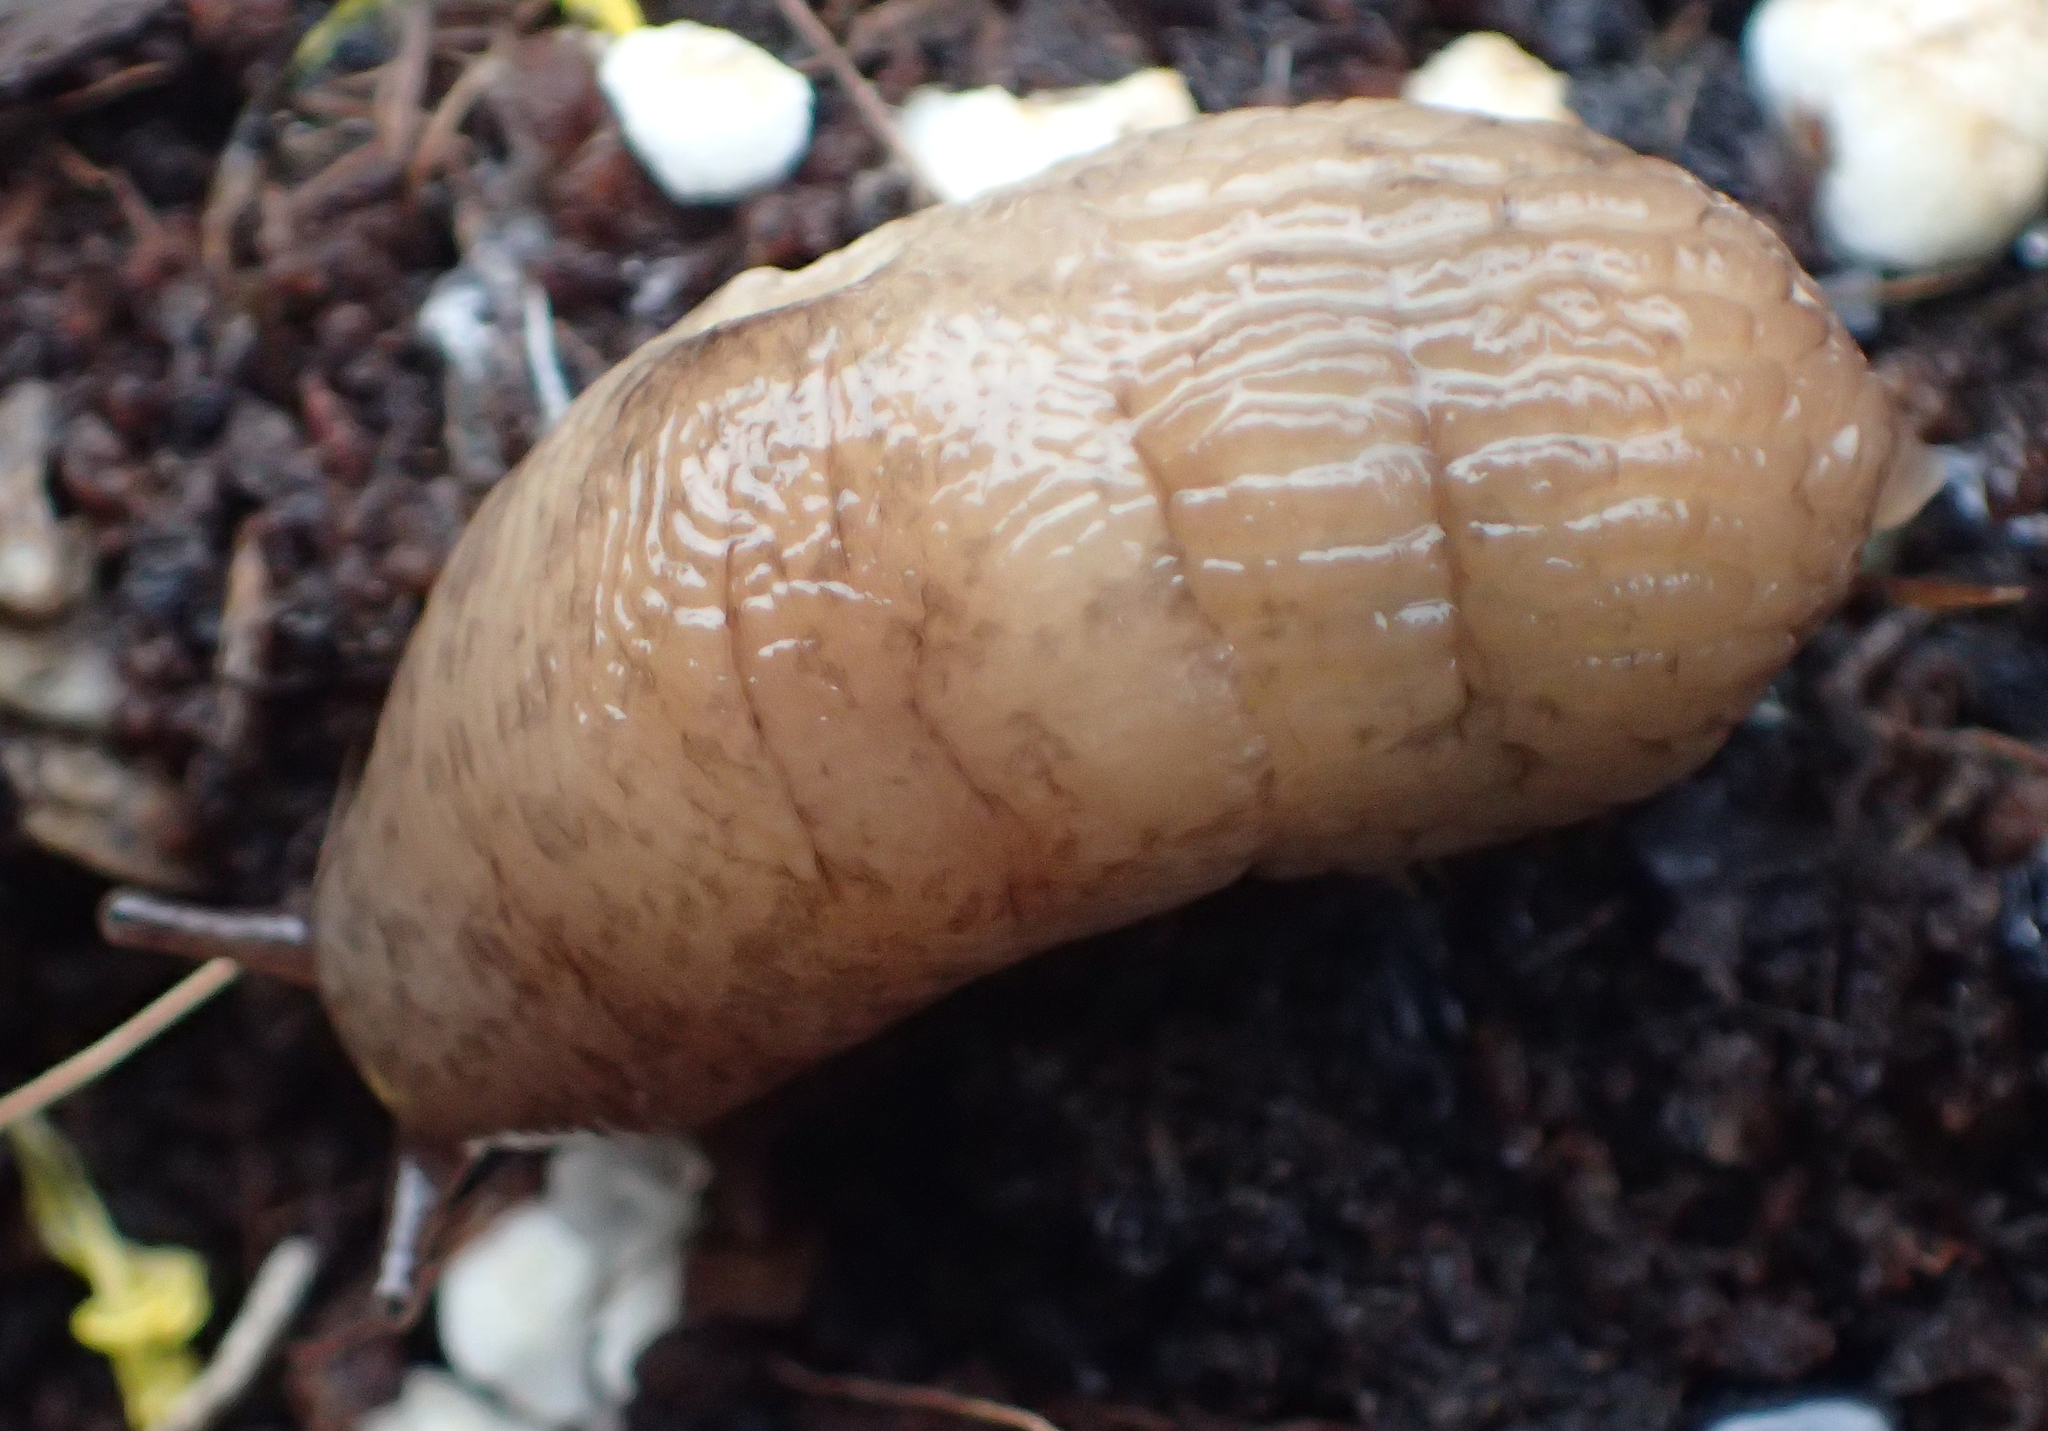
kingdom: Animalia
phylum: Mollusca
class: Gastropoda
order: Stylommatophora
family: Agriolimacidae
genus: Deroceras
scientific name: Deroceras reticulatum
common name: Gray field slug
